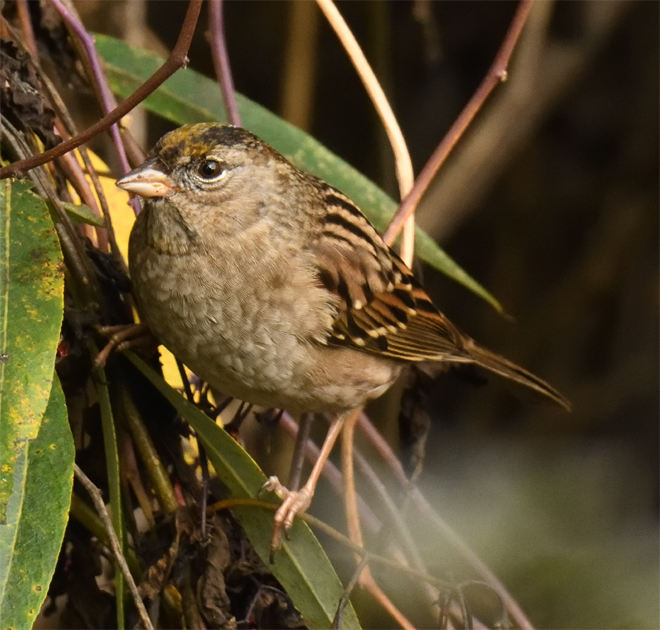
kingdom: Animalia
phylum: Chordata
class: Aves
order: Passeriformes
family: Passerellidae
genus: Zonotrichia
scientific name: Zonotrichia atricapilla
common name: Golden-crowned sparrow
